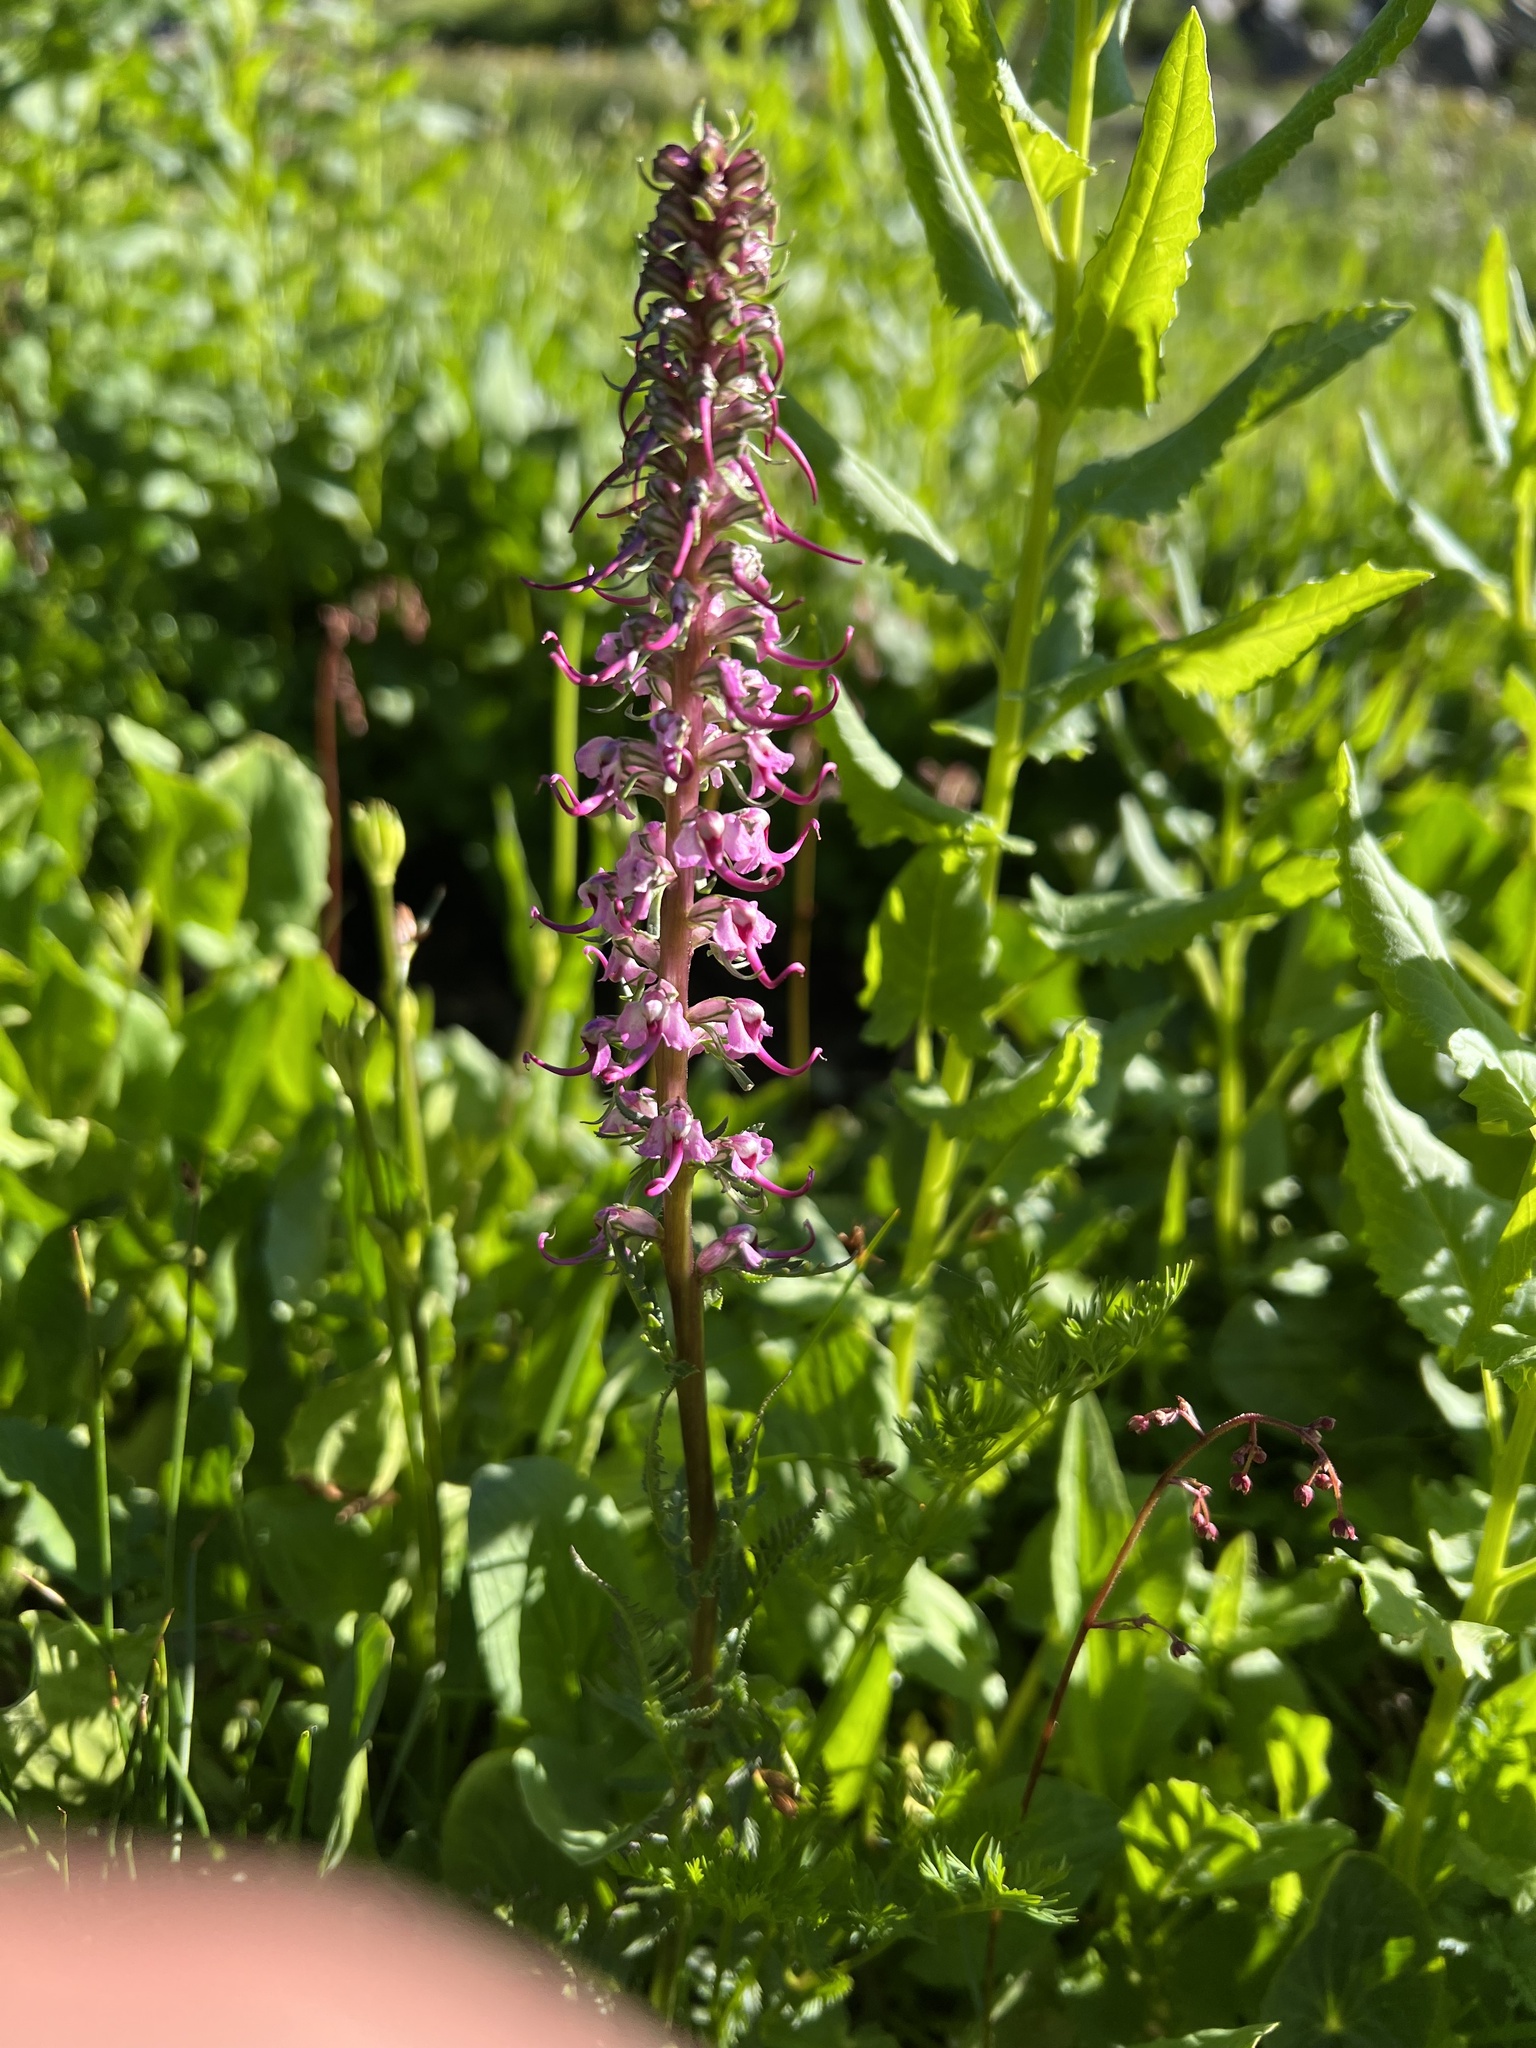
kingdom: Plantae
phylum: Tracheophyta
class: Magnoliopsida
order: Lamiales
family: Orobanchaceae
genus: Pedicularis
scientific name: Pedicularis groenlandica
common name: Elephant's-head
